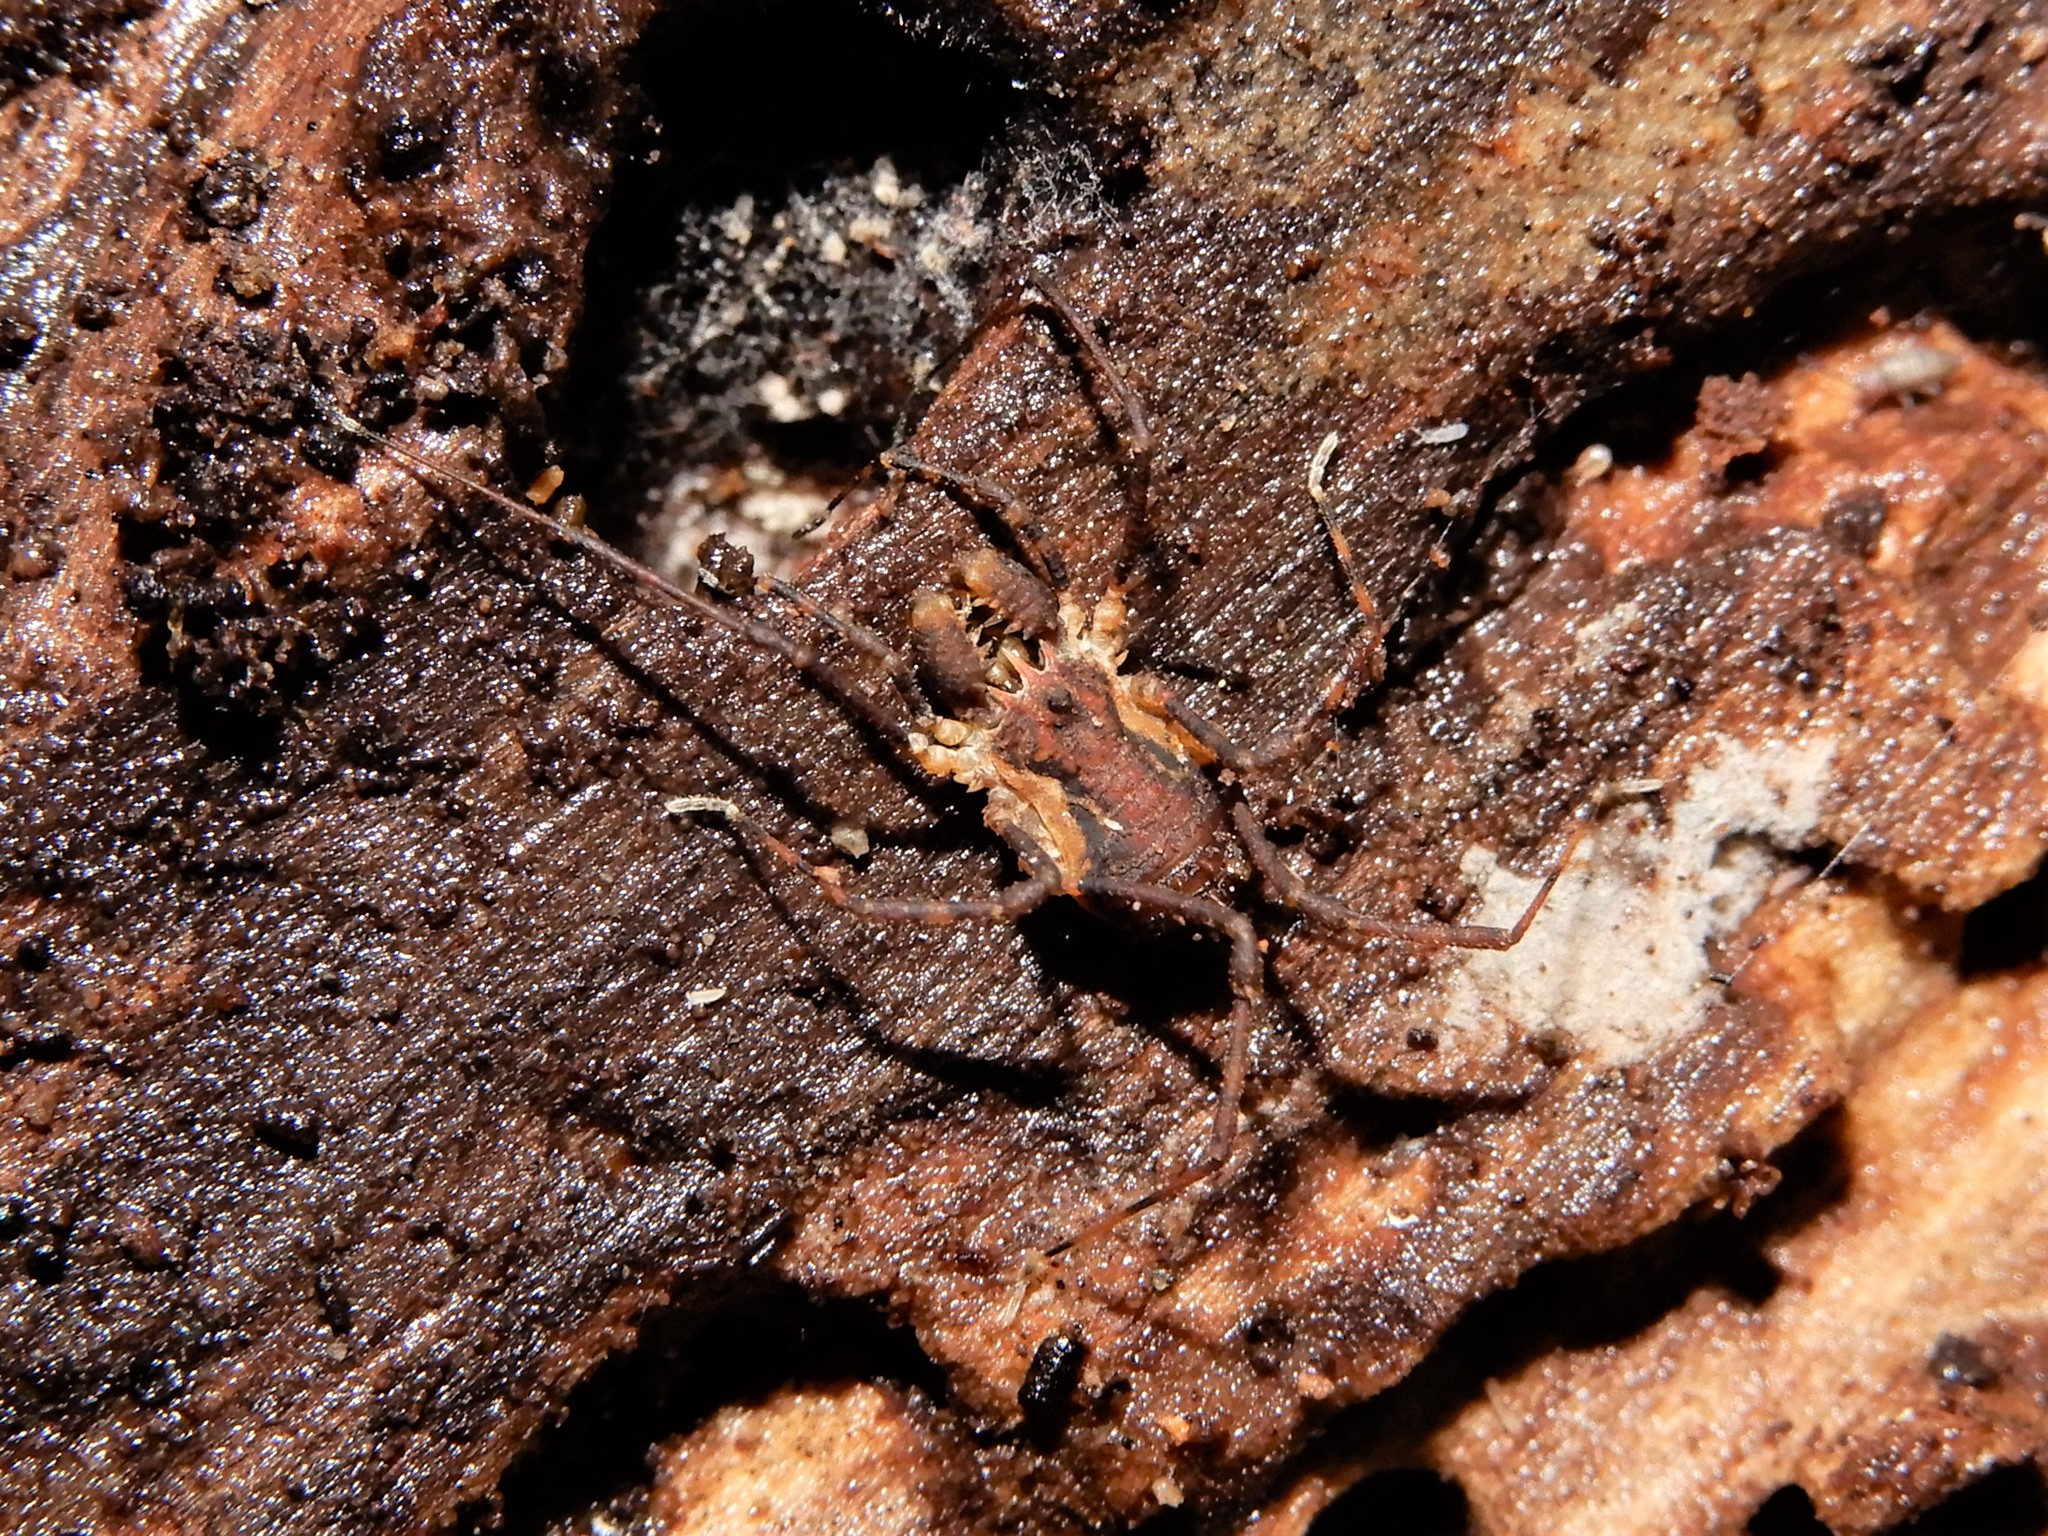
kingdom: Animalia
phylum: Arthropoda
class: Arachnida
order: Opiliones
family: Triaenonychidae
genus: Algidia
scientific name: Algidia chiltoni
